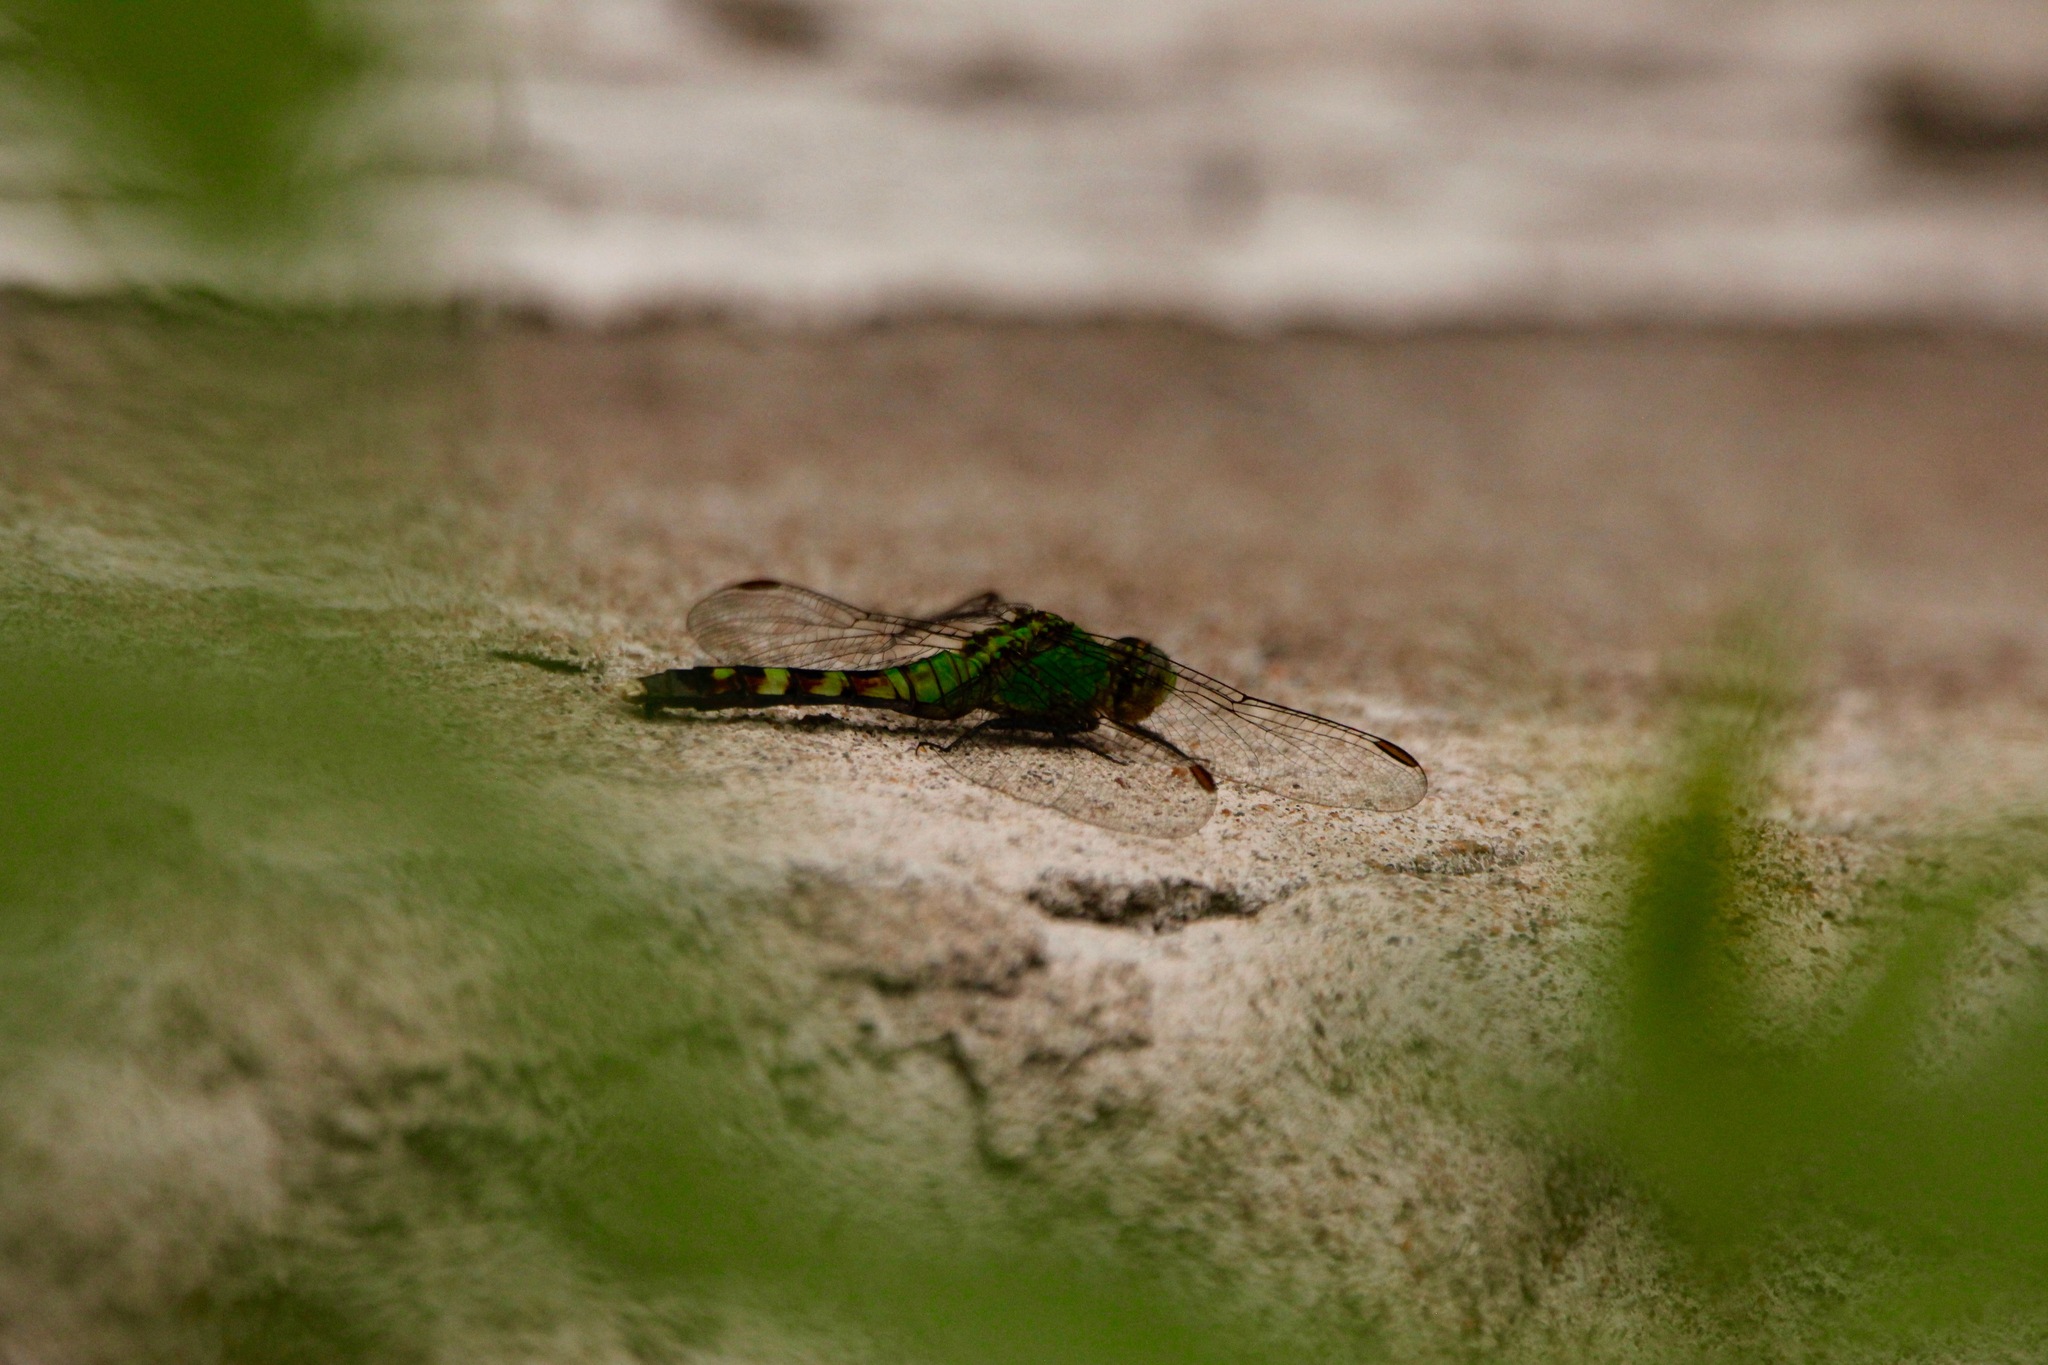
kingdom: Animalia
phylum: Arthropoda
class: Insecta
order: Odonata
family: Libellulidae
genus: Erythemis
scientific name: Erythemis simplicicollis
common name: Eastern pondhawk
